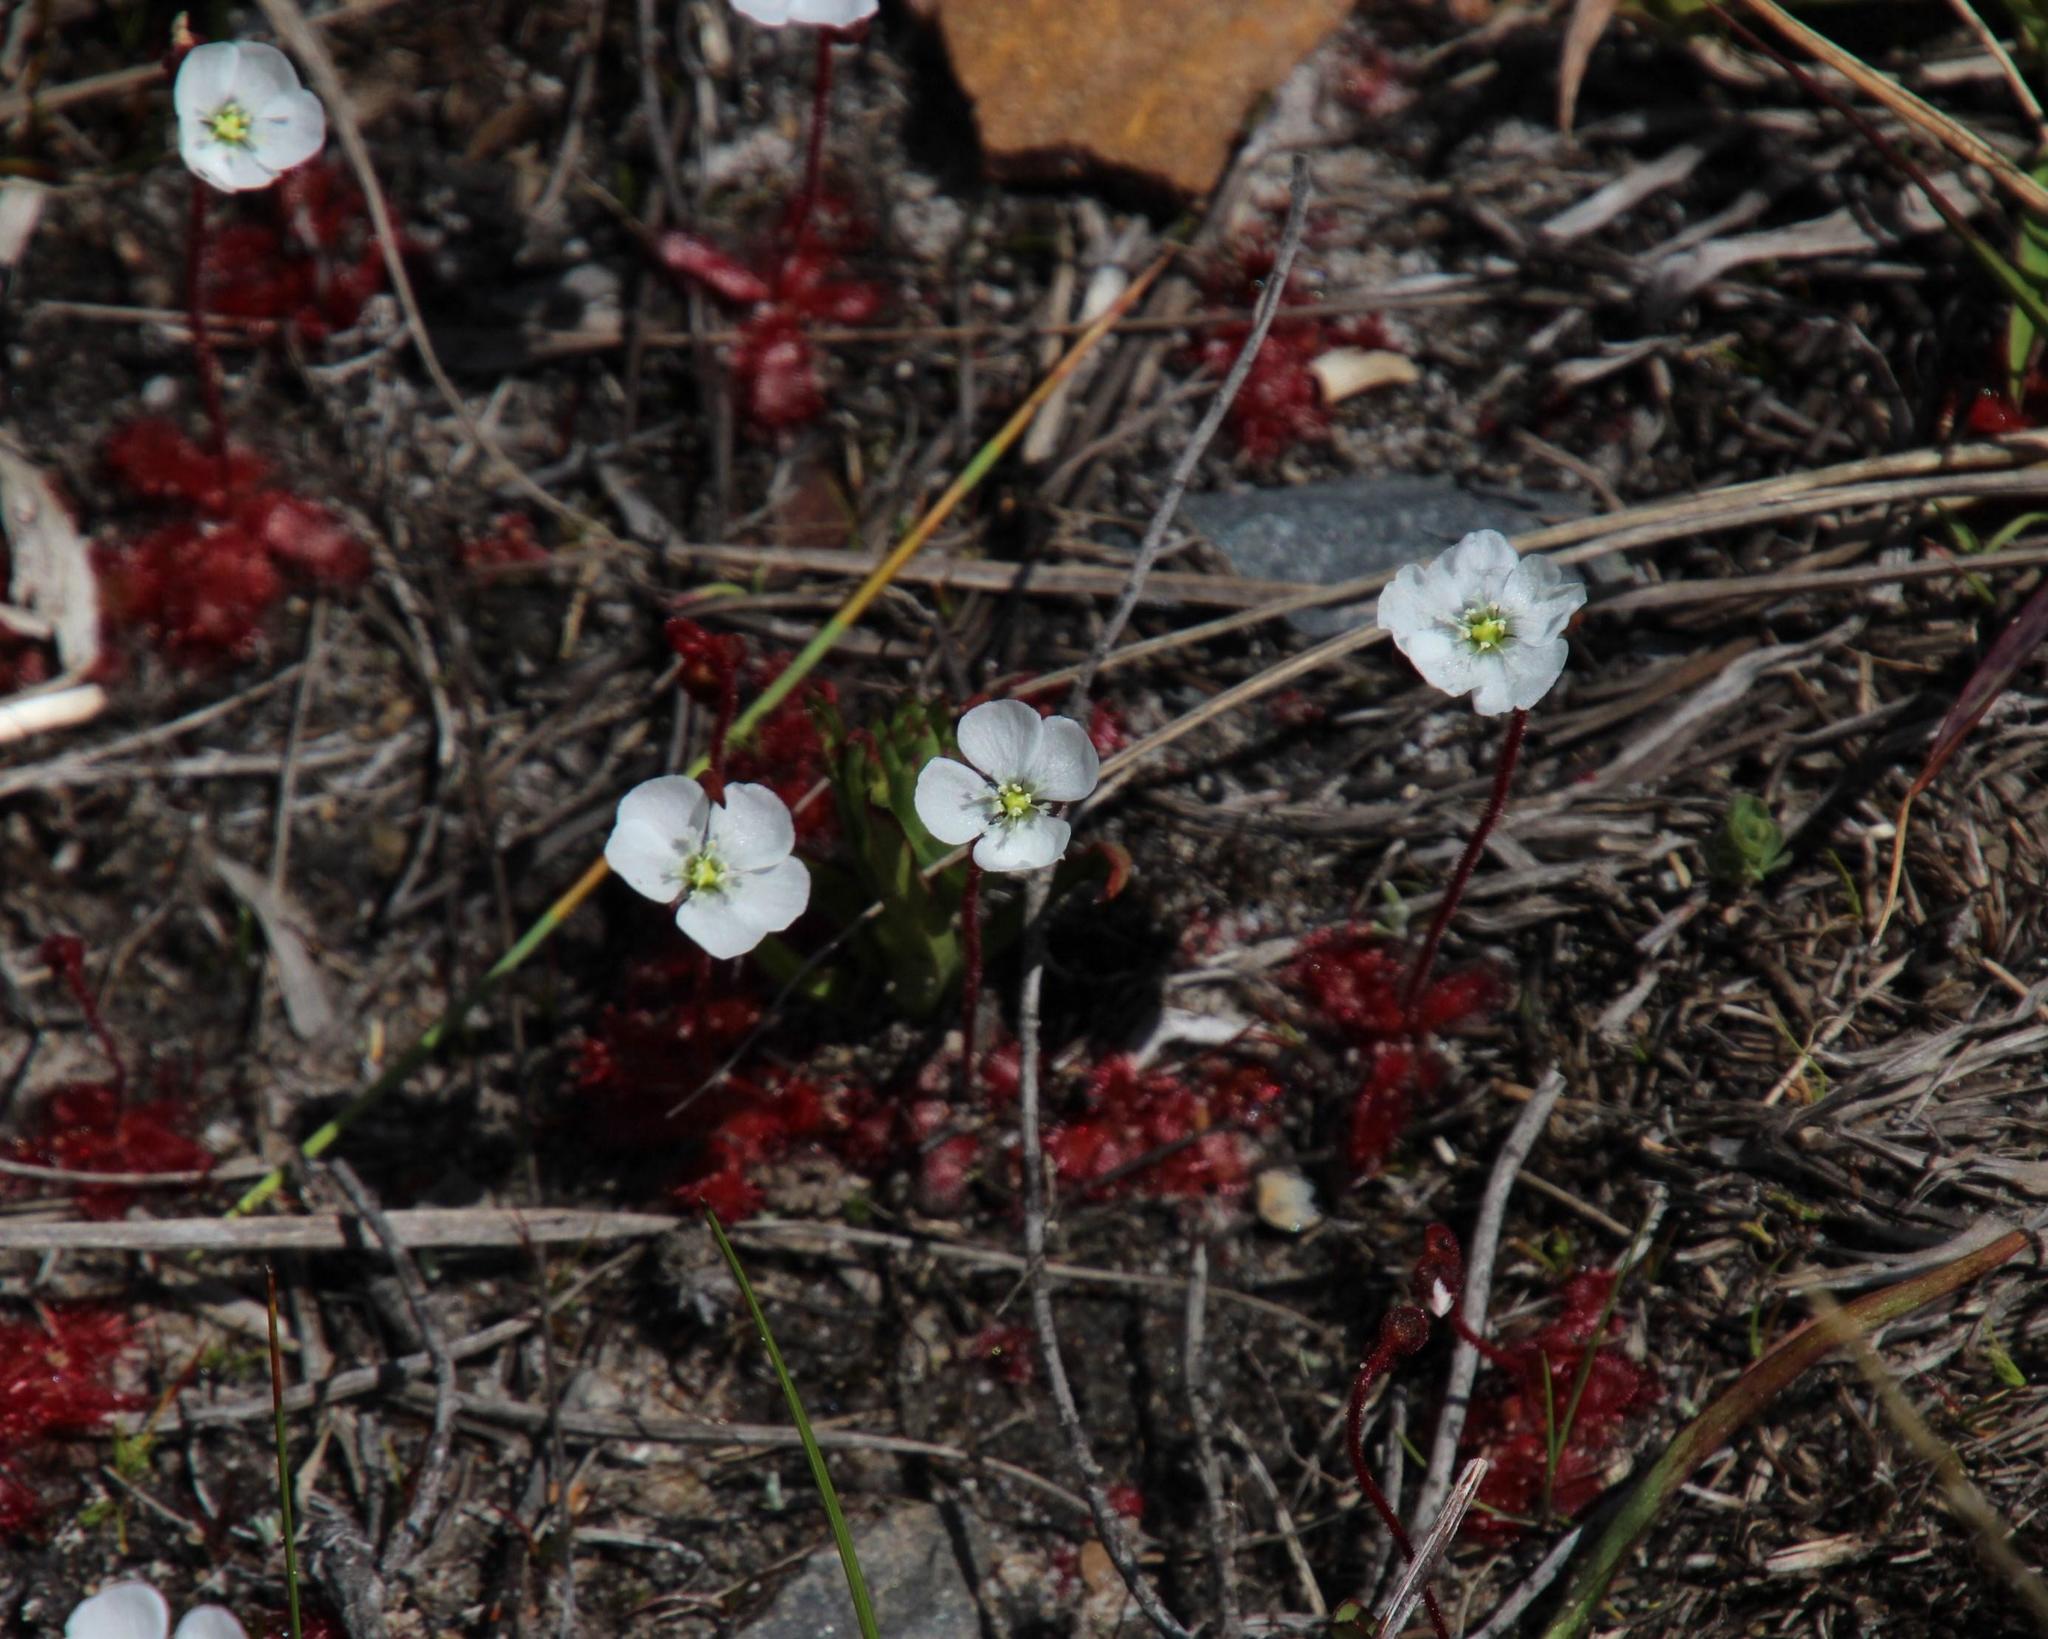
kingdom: Plantae
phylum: Tracheophyta
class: Magnoliopsida
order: Caryophyllales
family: Droseraceae
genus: Drosera
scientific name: Drosera trinervia
